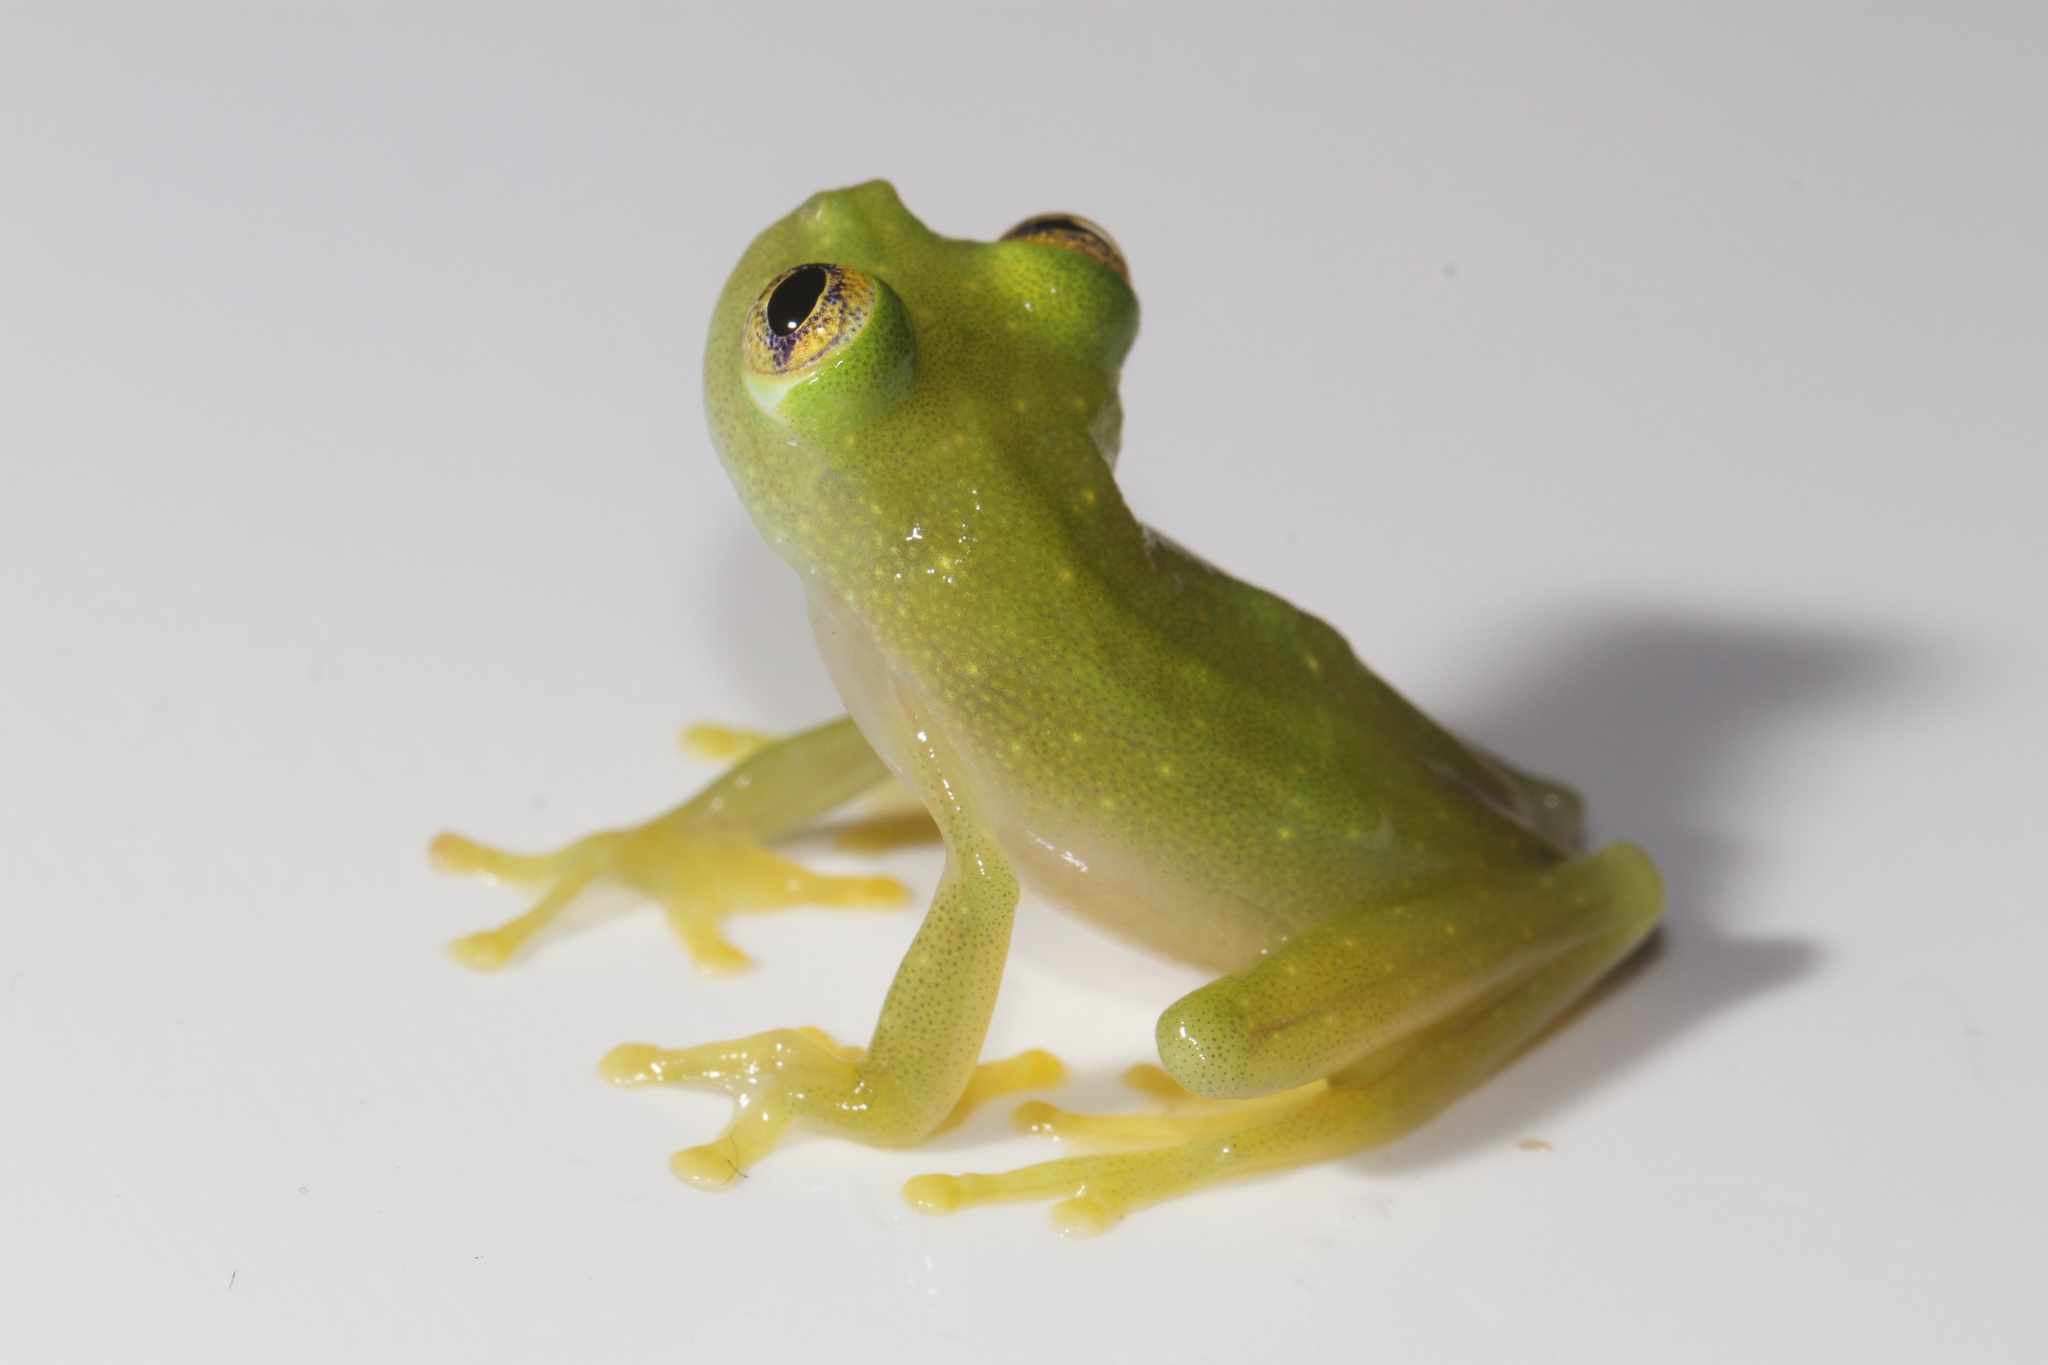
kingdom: Animalia
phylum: Chordata
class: Amphibia
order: Anura
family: Centrolenidae
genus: Hyalinobatrachium
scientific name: Hyalinobatrachium colymbiphyllum
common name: Plantation glass frog
